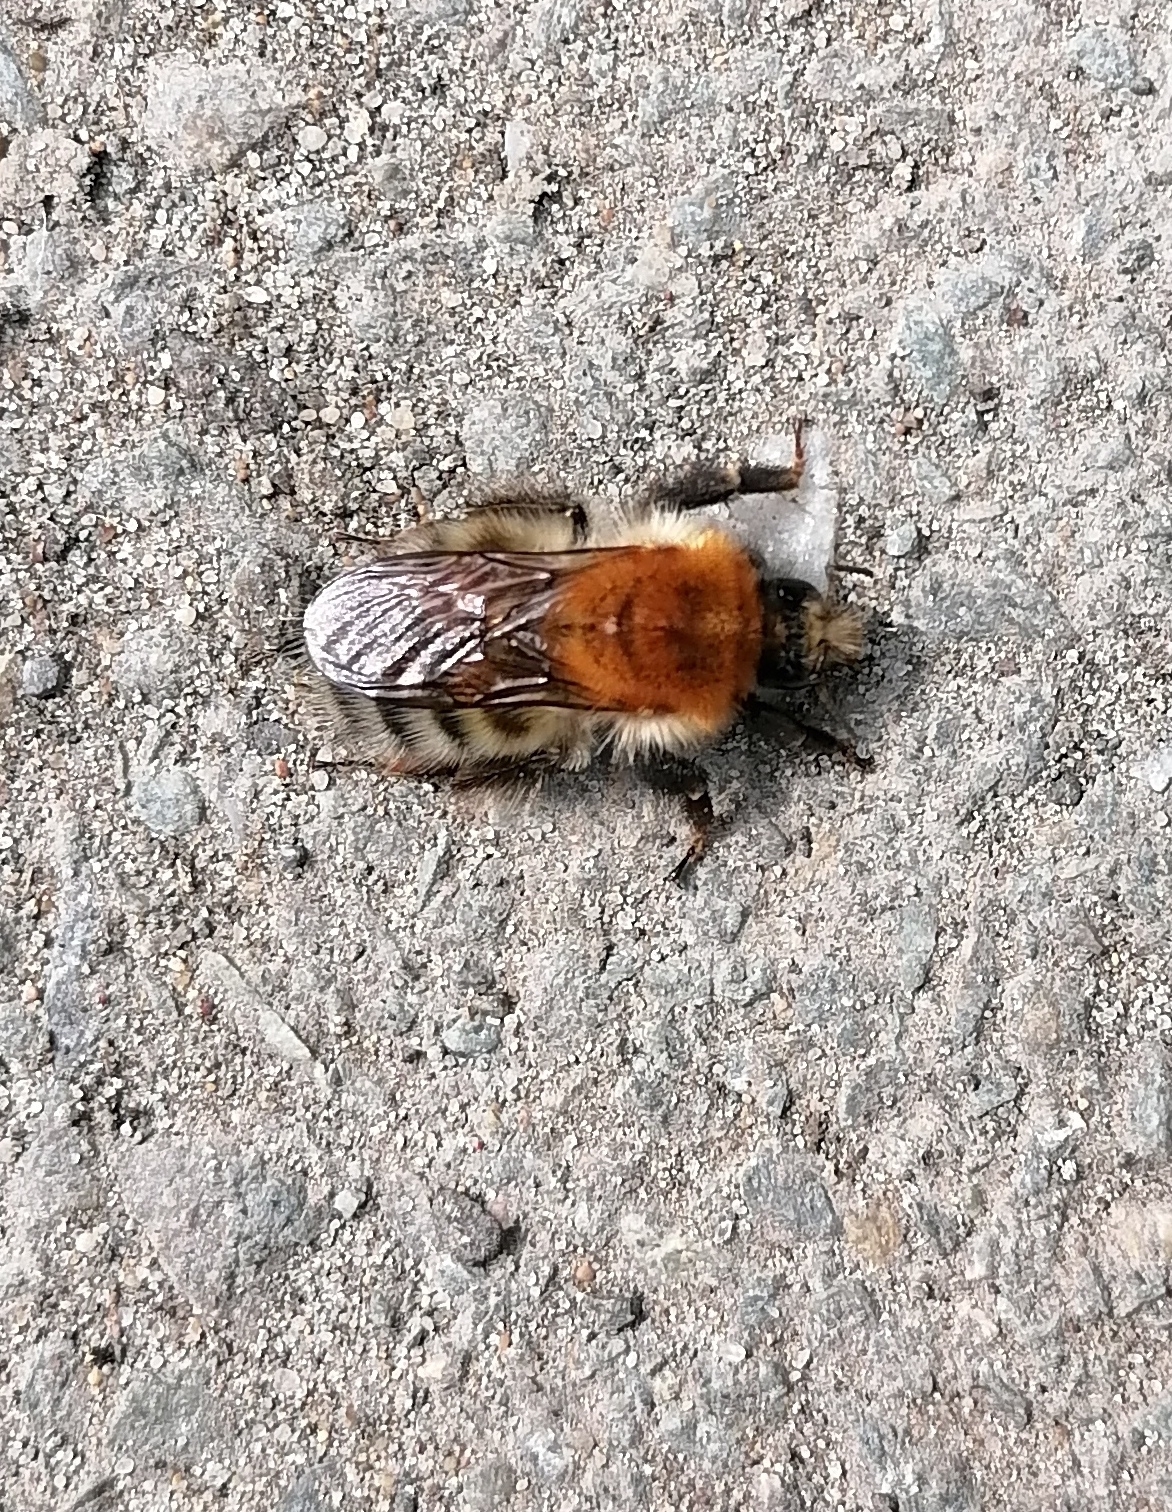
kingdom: Animalia
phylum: Arthropoda
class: Insecta
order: Hymenoptera
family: Apidae
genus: Bombus
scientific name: Bombus schrencki
